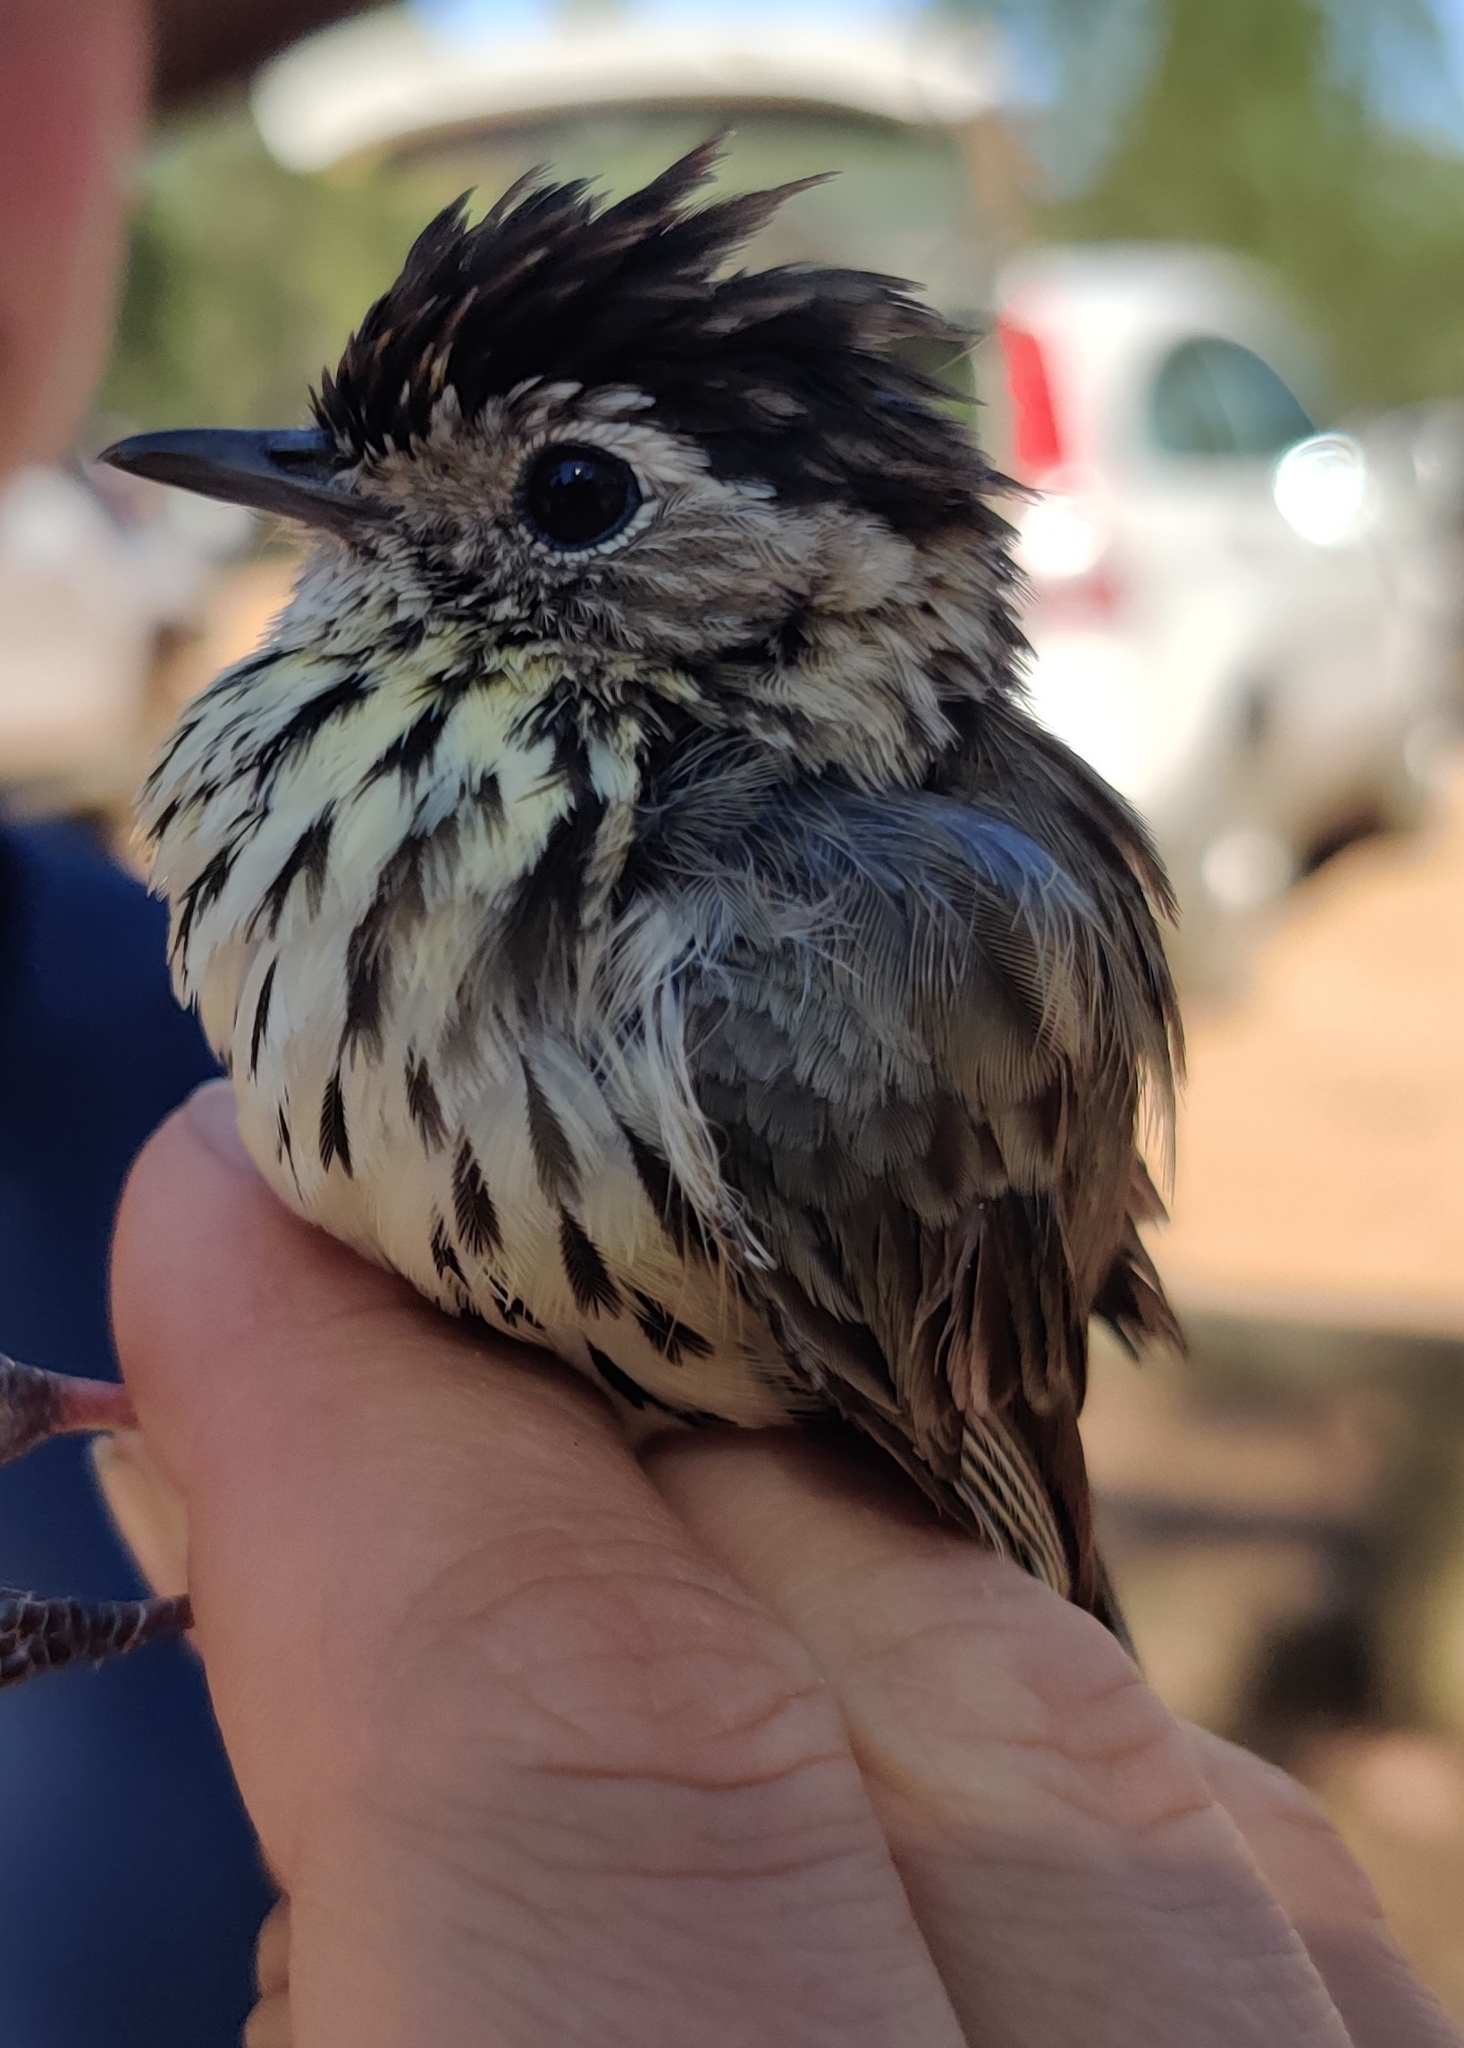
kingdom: Animalia
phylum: Chordata
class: Aves
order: Passeriformes
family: Acanthizidae
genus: Pyrrholaemus
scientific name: Pyrrholaemus sagittatus
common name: Speckled warbler
